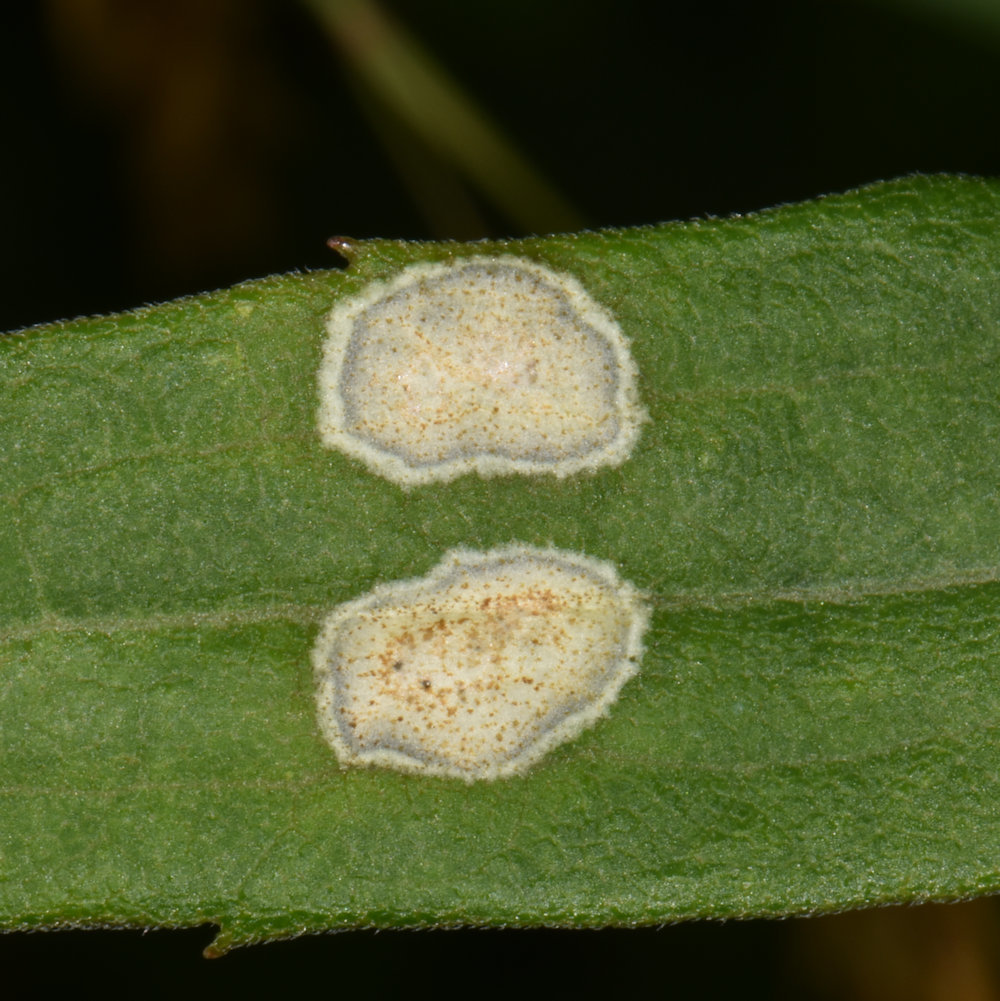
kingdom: Animalia
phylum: Arthropoda
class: Insecta
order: Diptera
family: Cecidomyiidae
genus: Asteromyia
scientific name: Asteromyia carbonifera
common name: Carbonifera goldenrod gall midge
